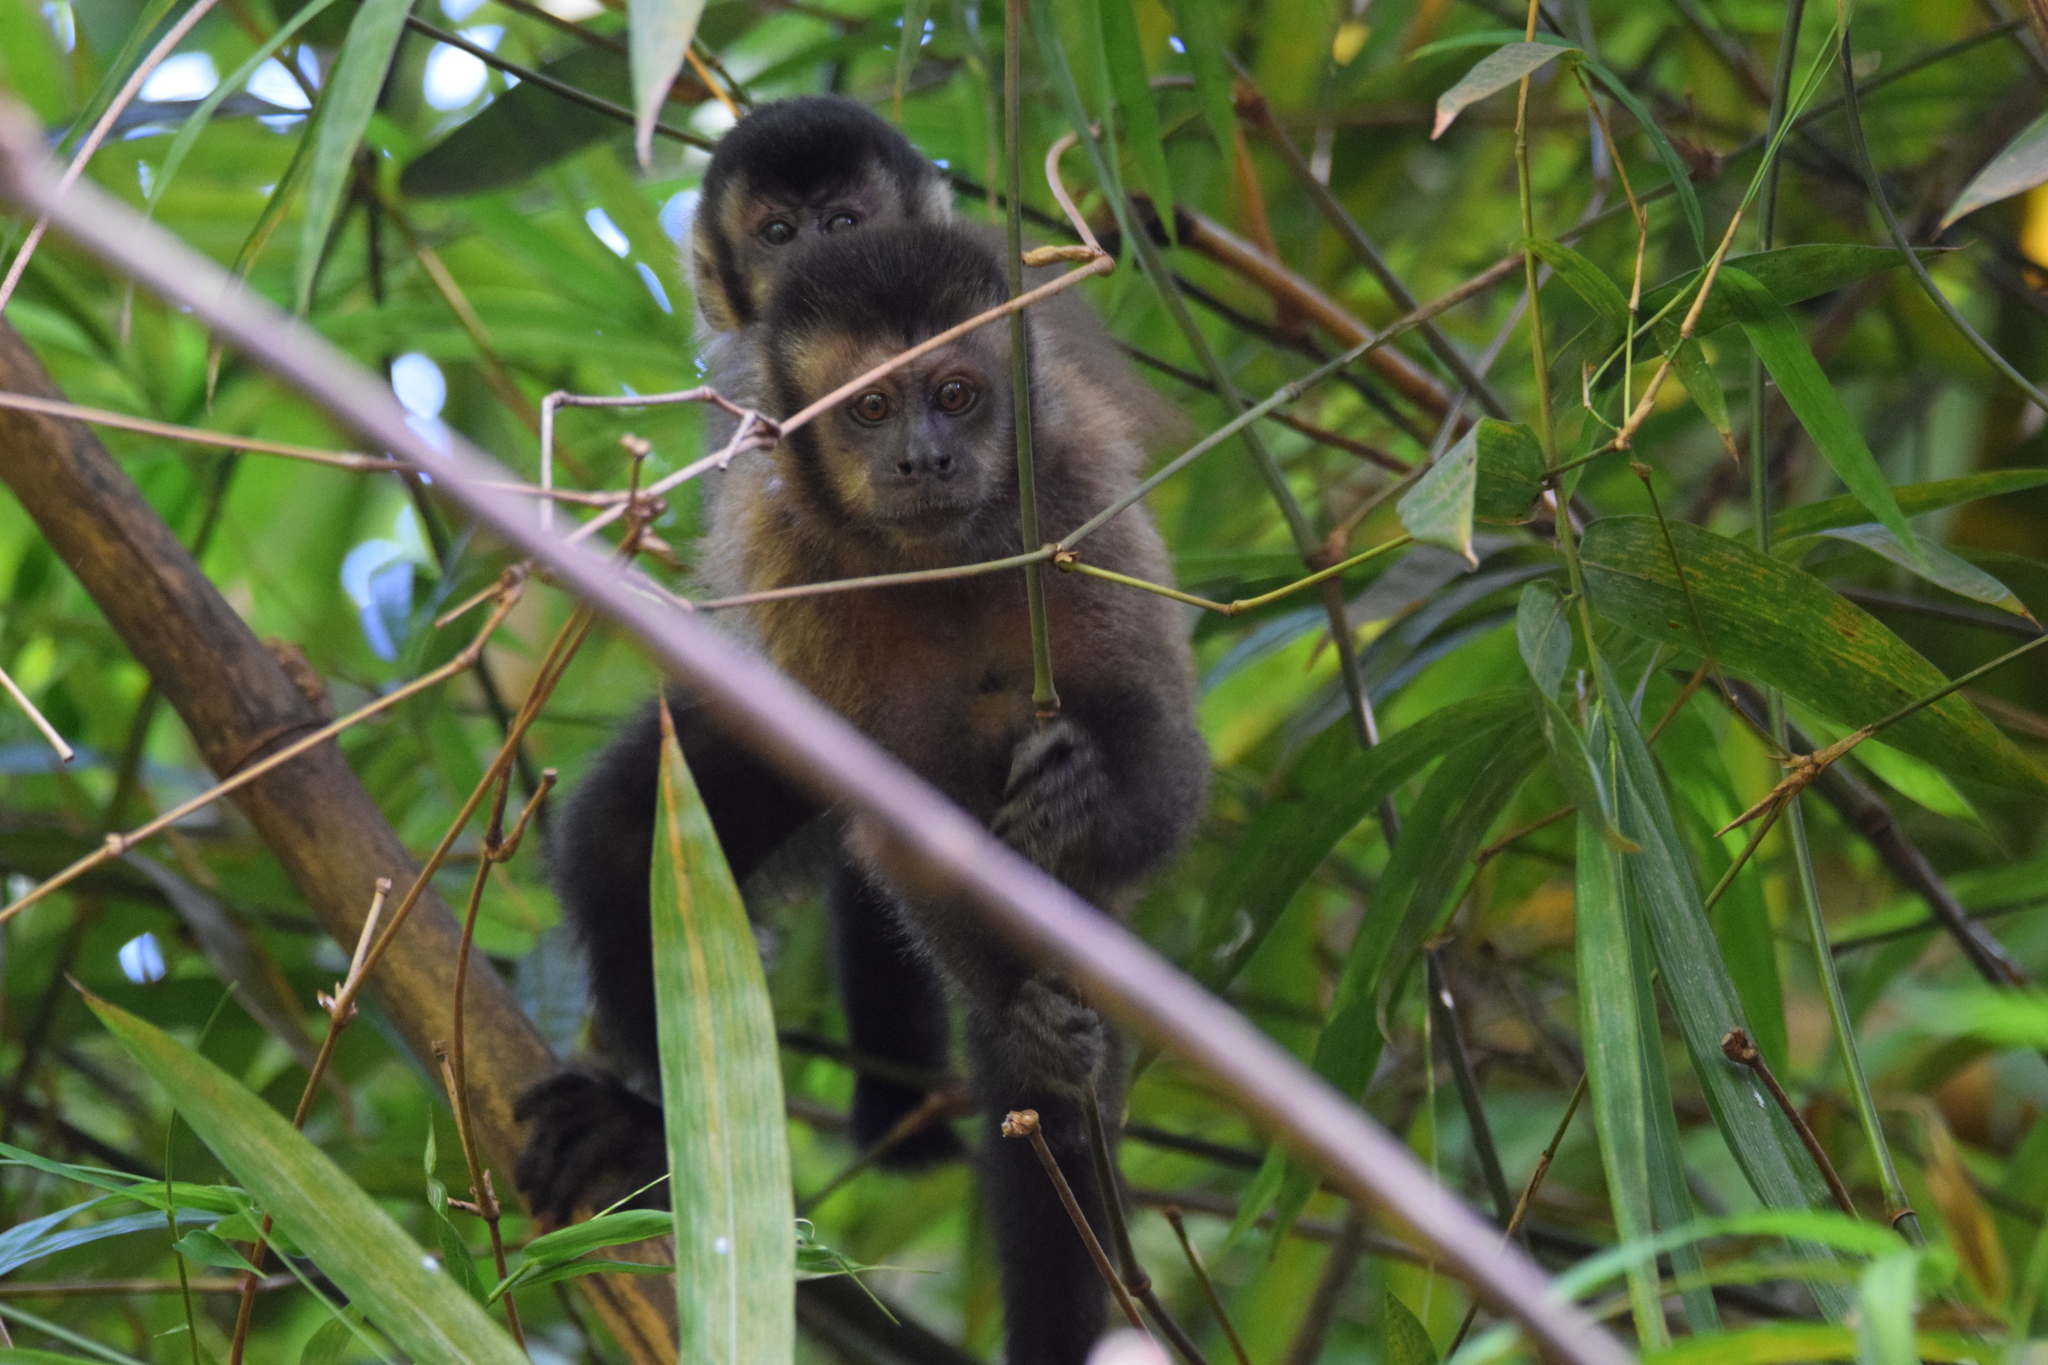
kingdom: Animalia
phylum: Chordata
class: Mammalia
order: Primates
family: Cebidae
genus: Sapajus
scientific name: Sapajus nigritus
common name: Black capuchin
